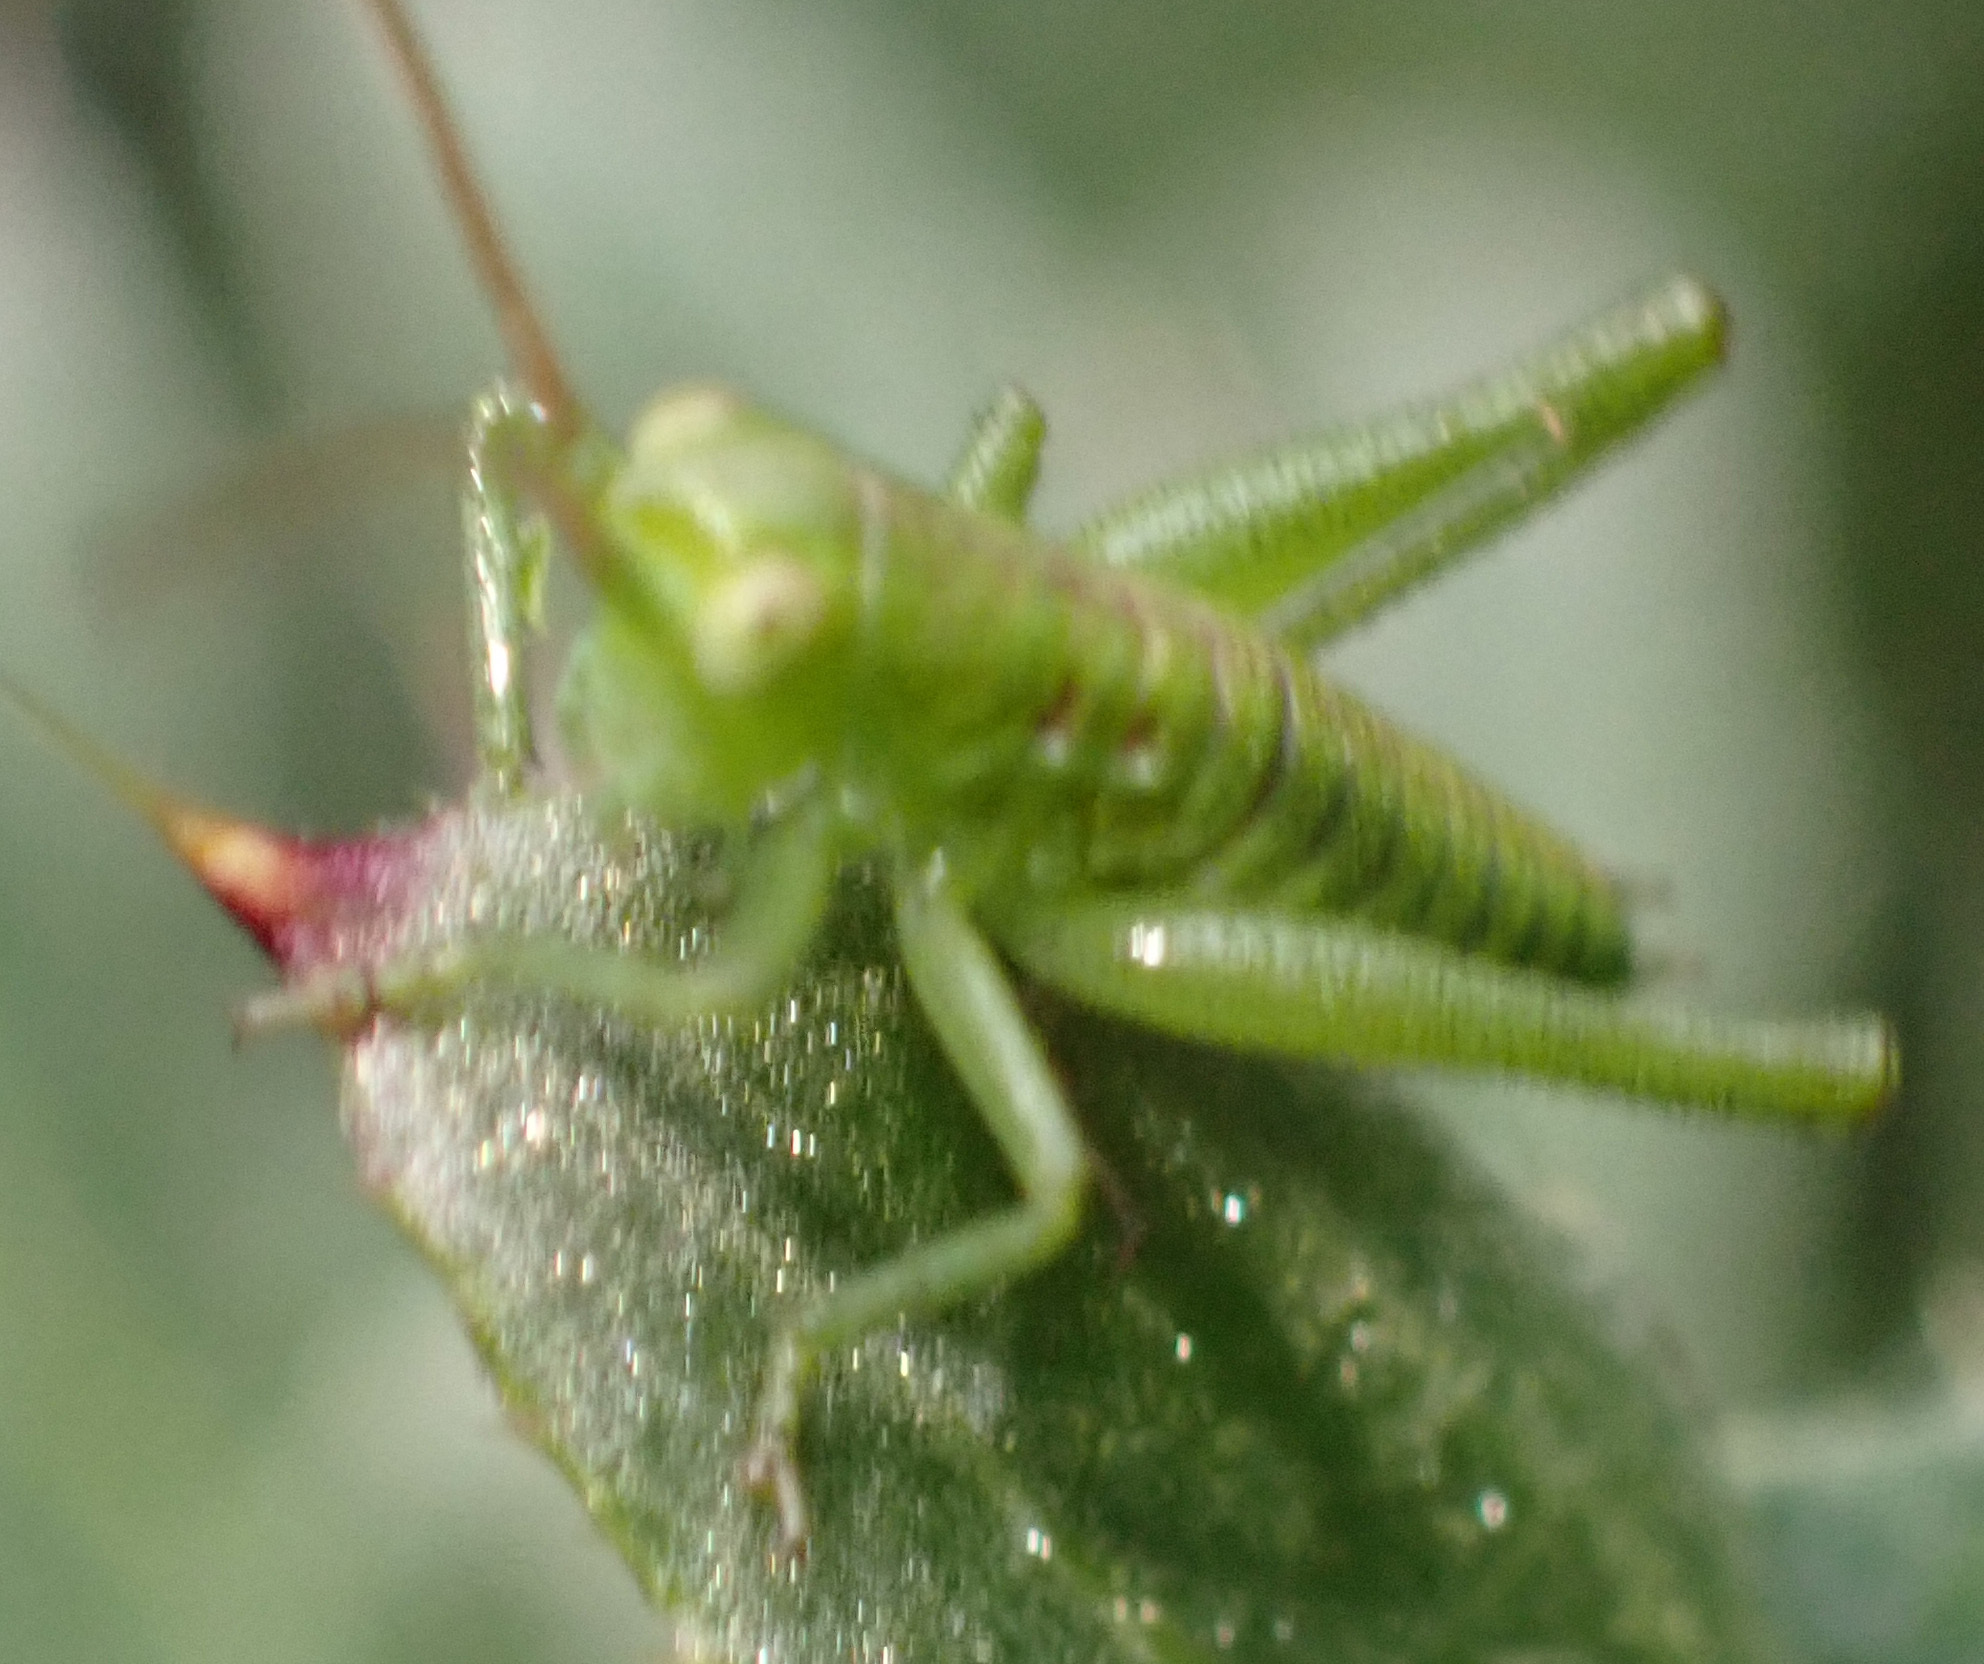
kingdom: Animalia
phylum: Arthropoda
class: Insecta
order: Orthoptera
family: Tettigoniidae
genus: Tettigonia
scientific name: Tettigonia viridissima
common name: Great green bush-cricket
